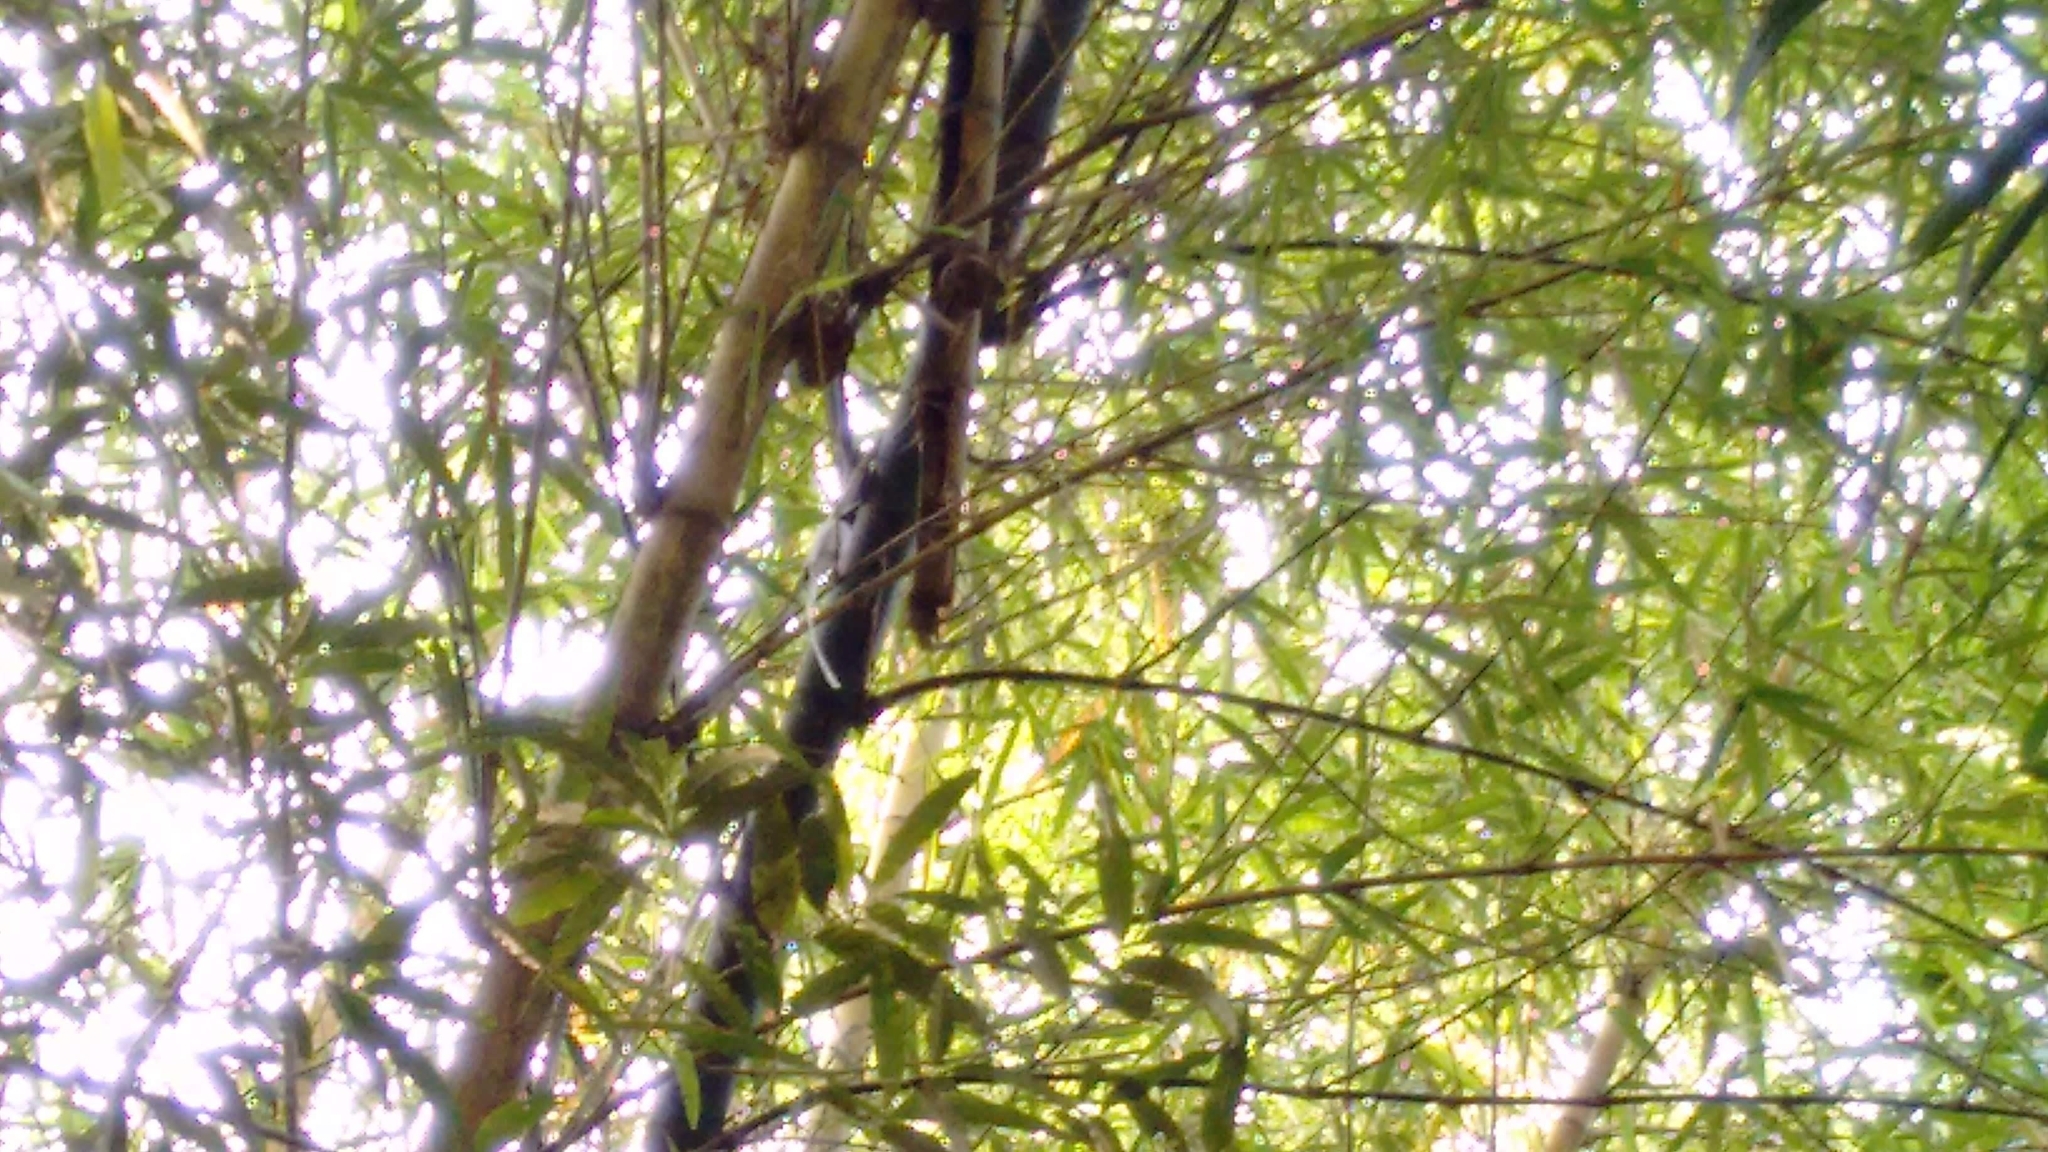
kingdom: Animalia
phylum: Chordata
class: Aves
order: Passeriformes
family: Monarchidae
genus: Terpsiphone
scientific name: Terpsiphone paradisi
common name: Indian paradise flycatcher
